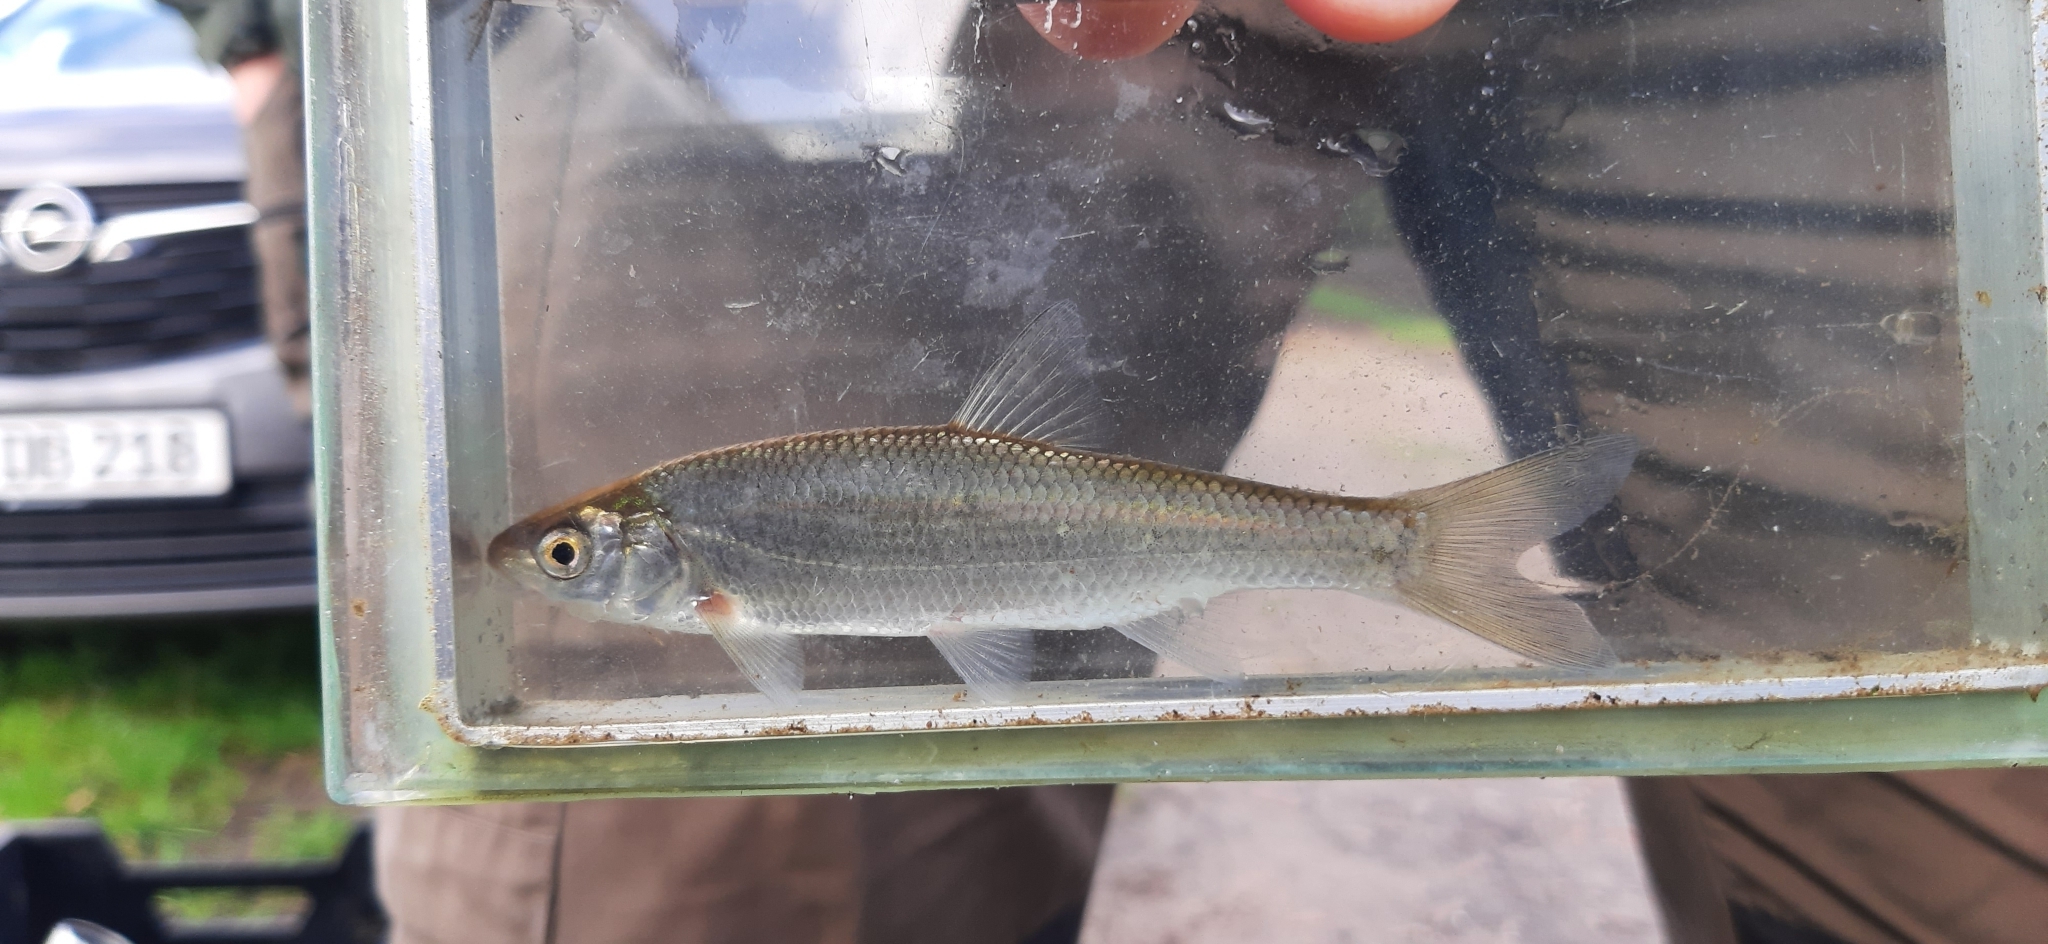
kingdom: Animalia
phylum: Chordata
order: Cypriniformes
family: Cyprinidae
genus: Leuciscus
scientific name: Leuciscus leuciscus
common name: Dace
